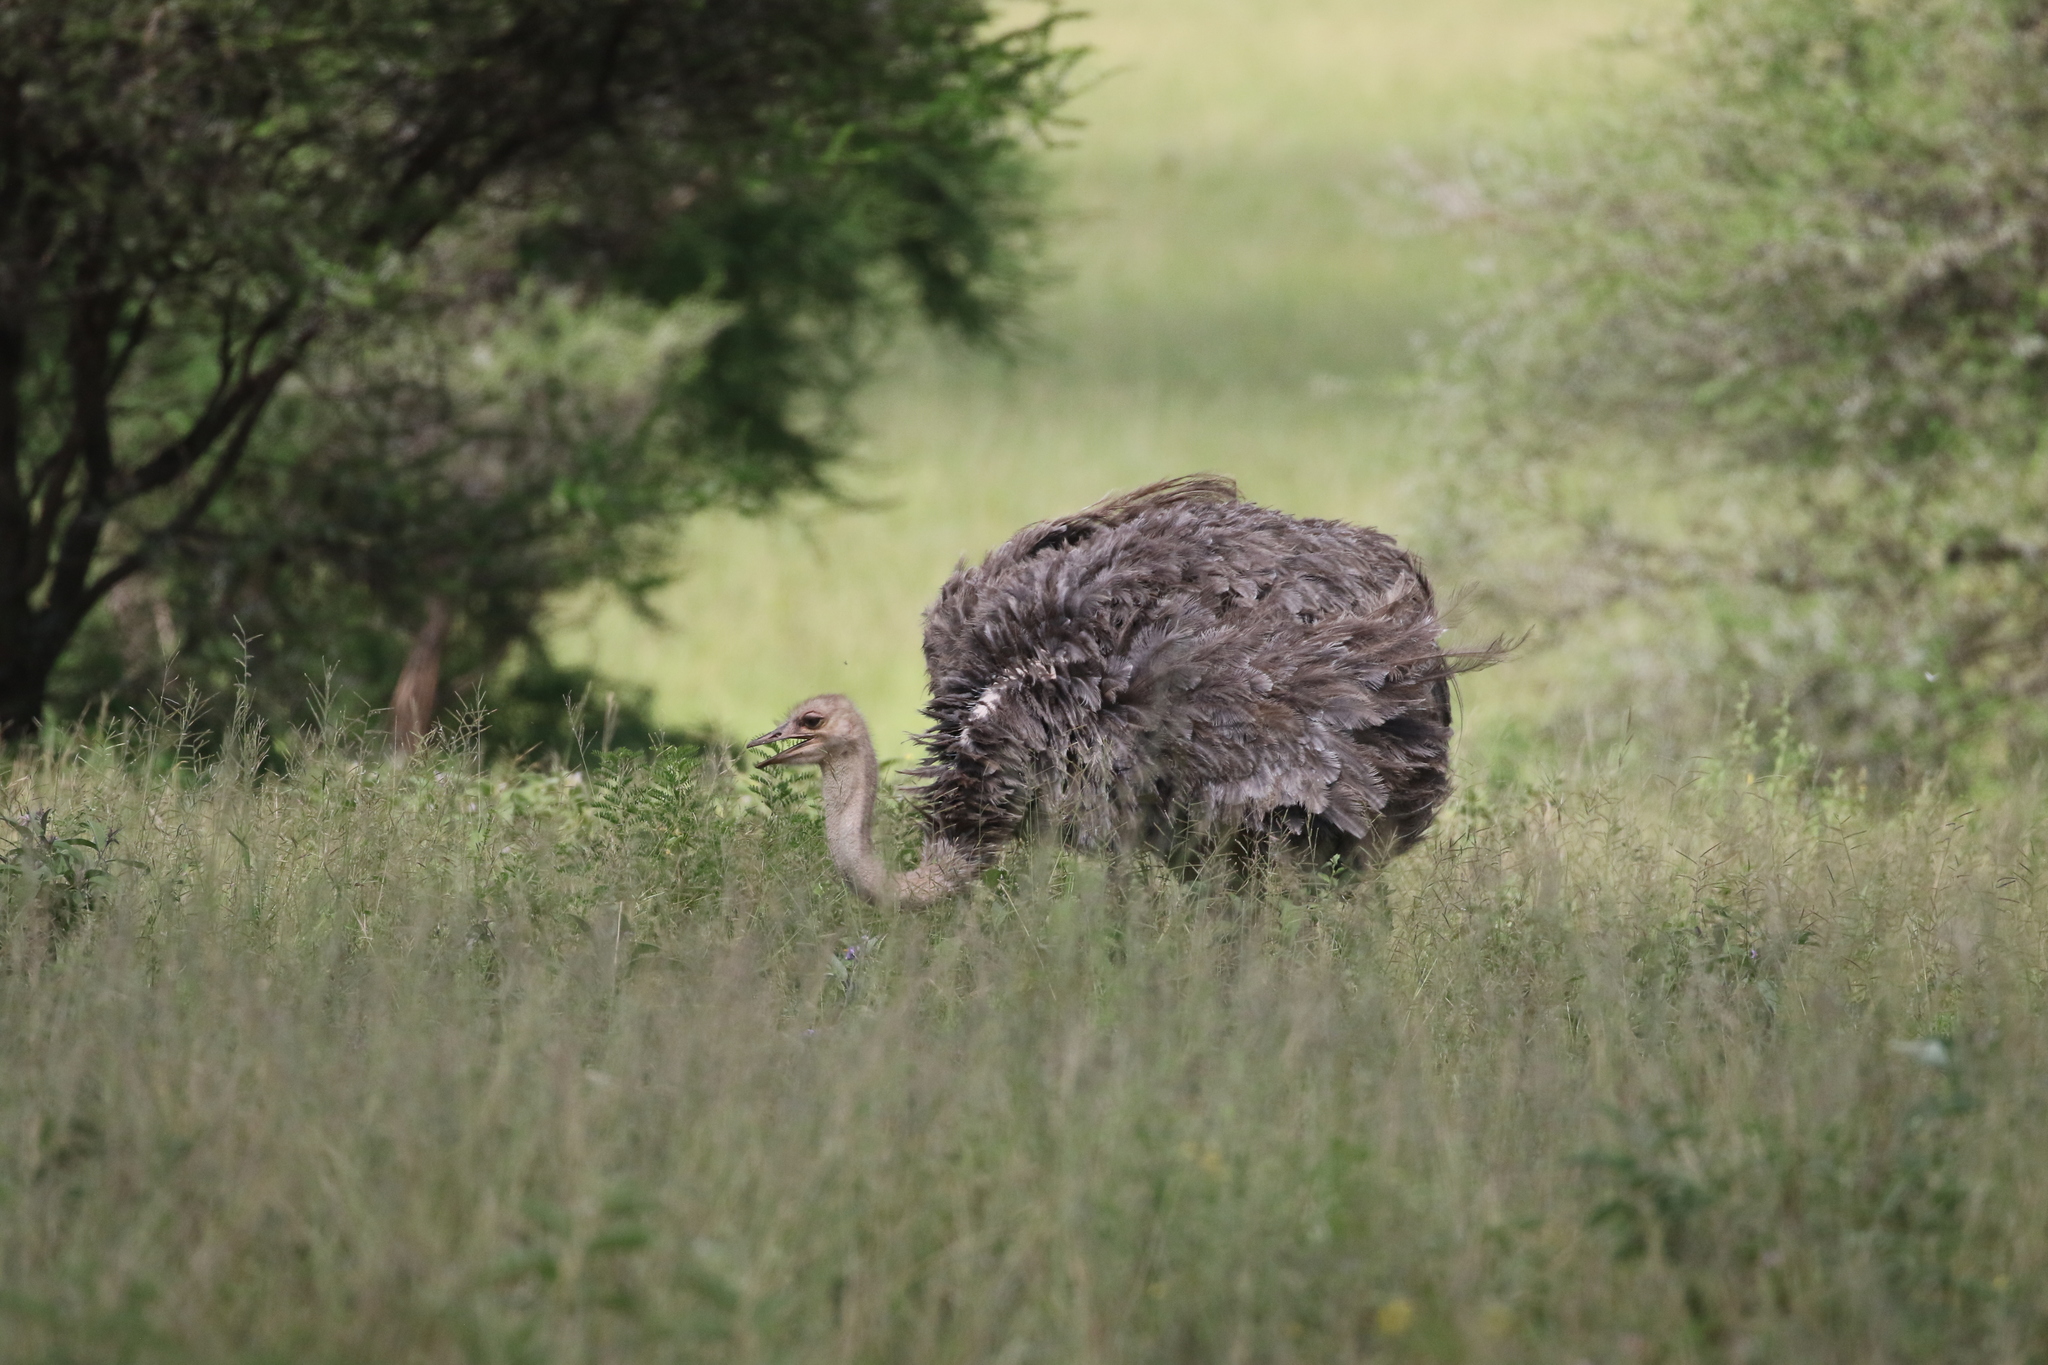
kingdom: Animalia
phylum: Chordata
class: Aves
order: Struthioniformes
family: Struthionidae
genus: Struthio
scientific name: Struthio camelus
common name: Common ostrich
